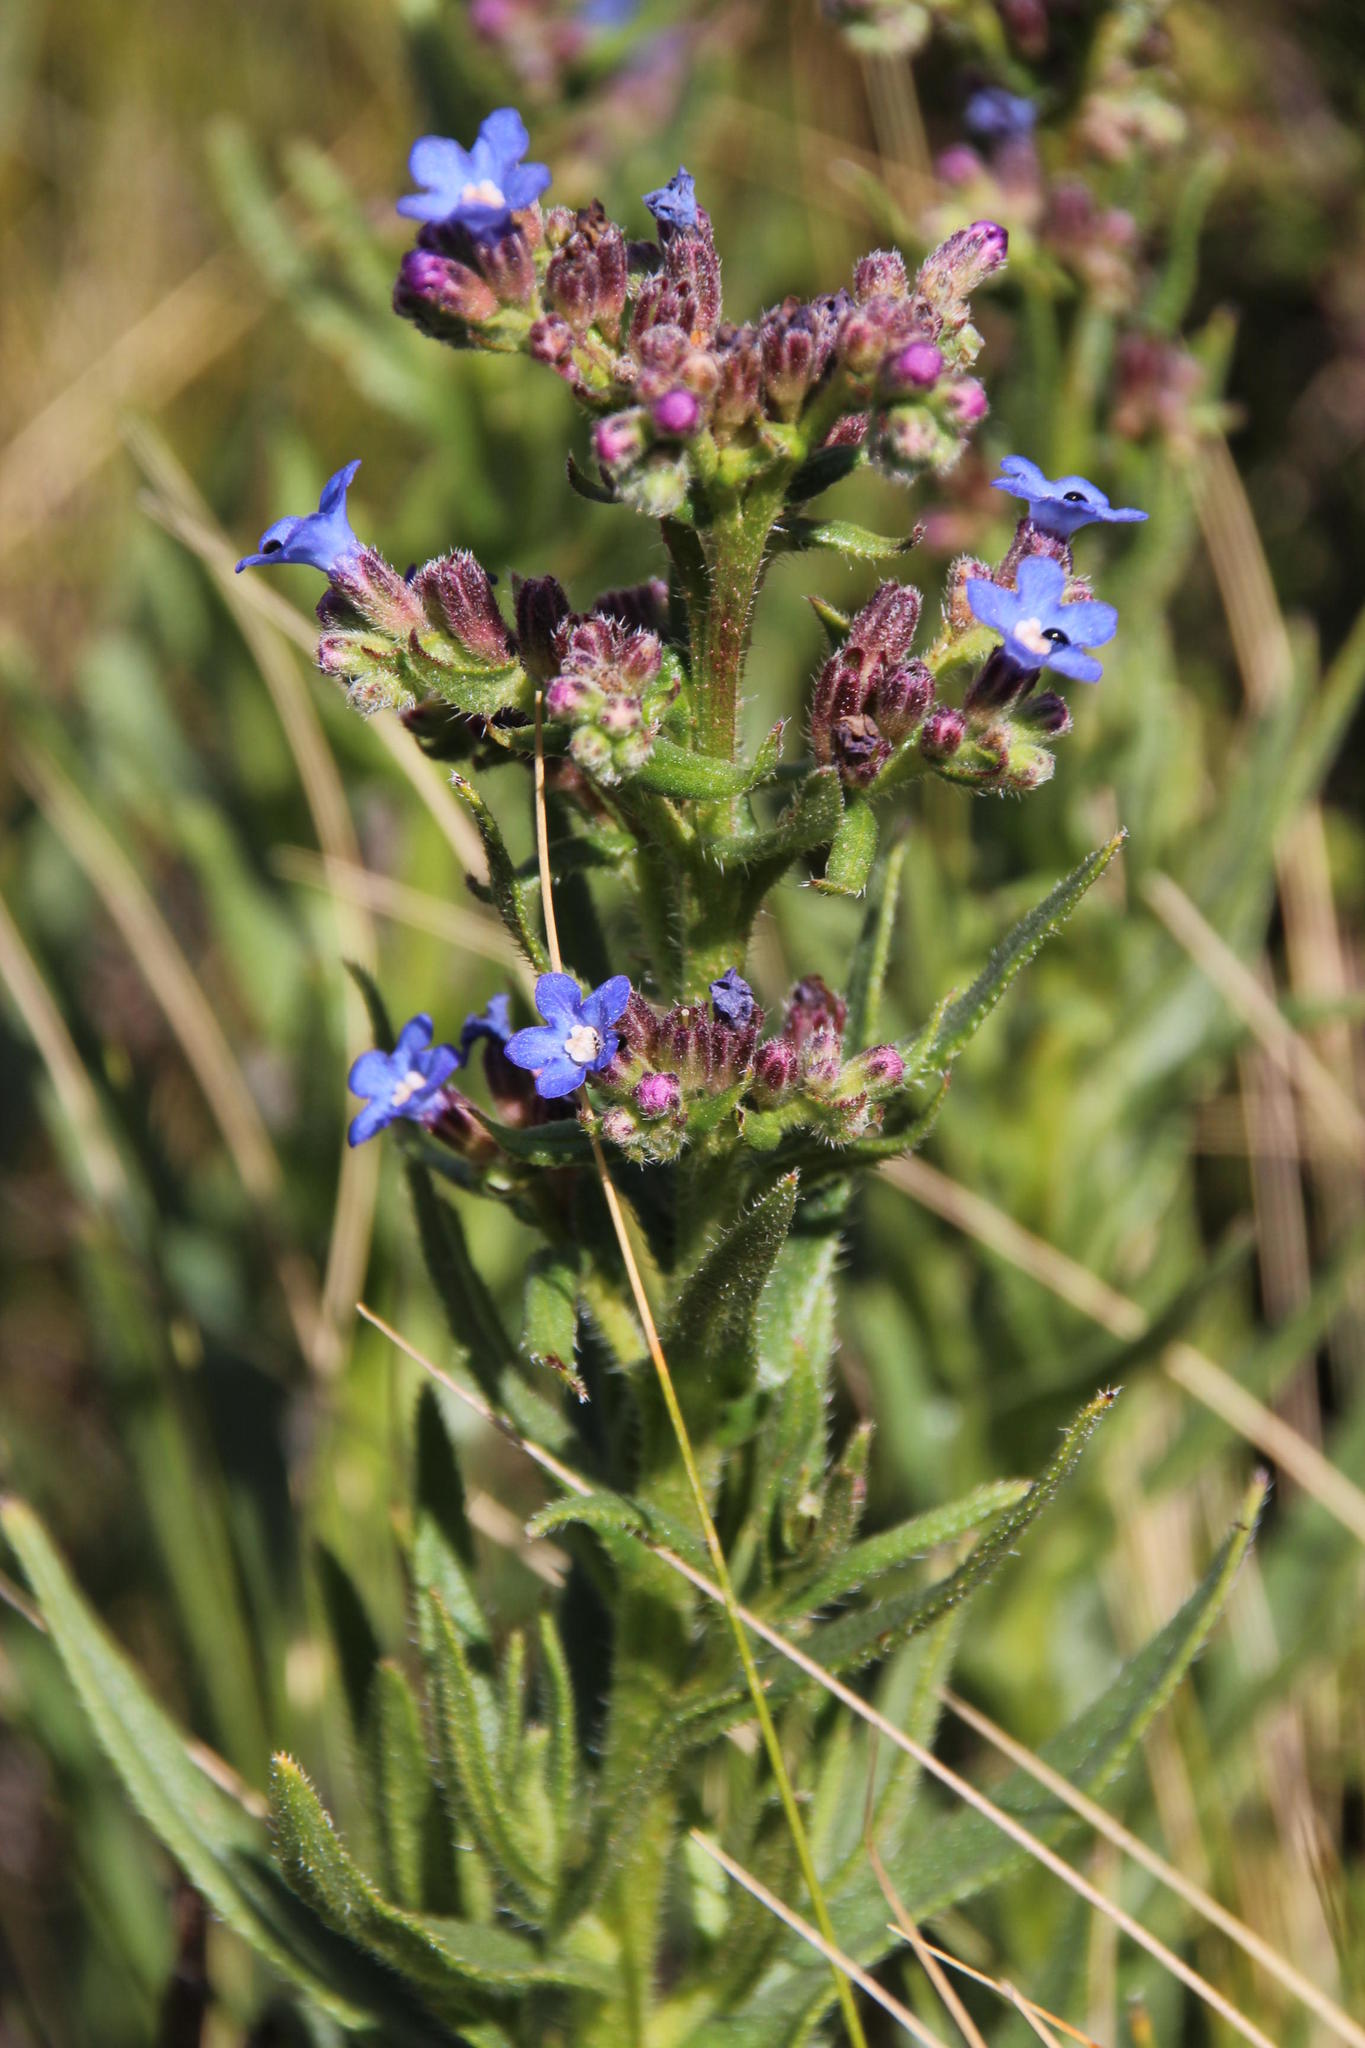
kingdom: Plantae
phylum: Tracheophyta
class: Magnoliopsida
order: Boraginales
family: Boraginaceae
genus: Anchusa
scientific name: Anchusa capensis
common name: Cape bugloss
